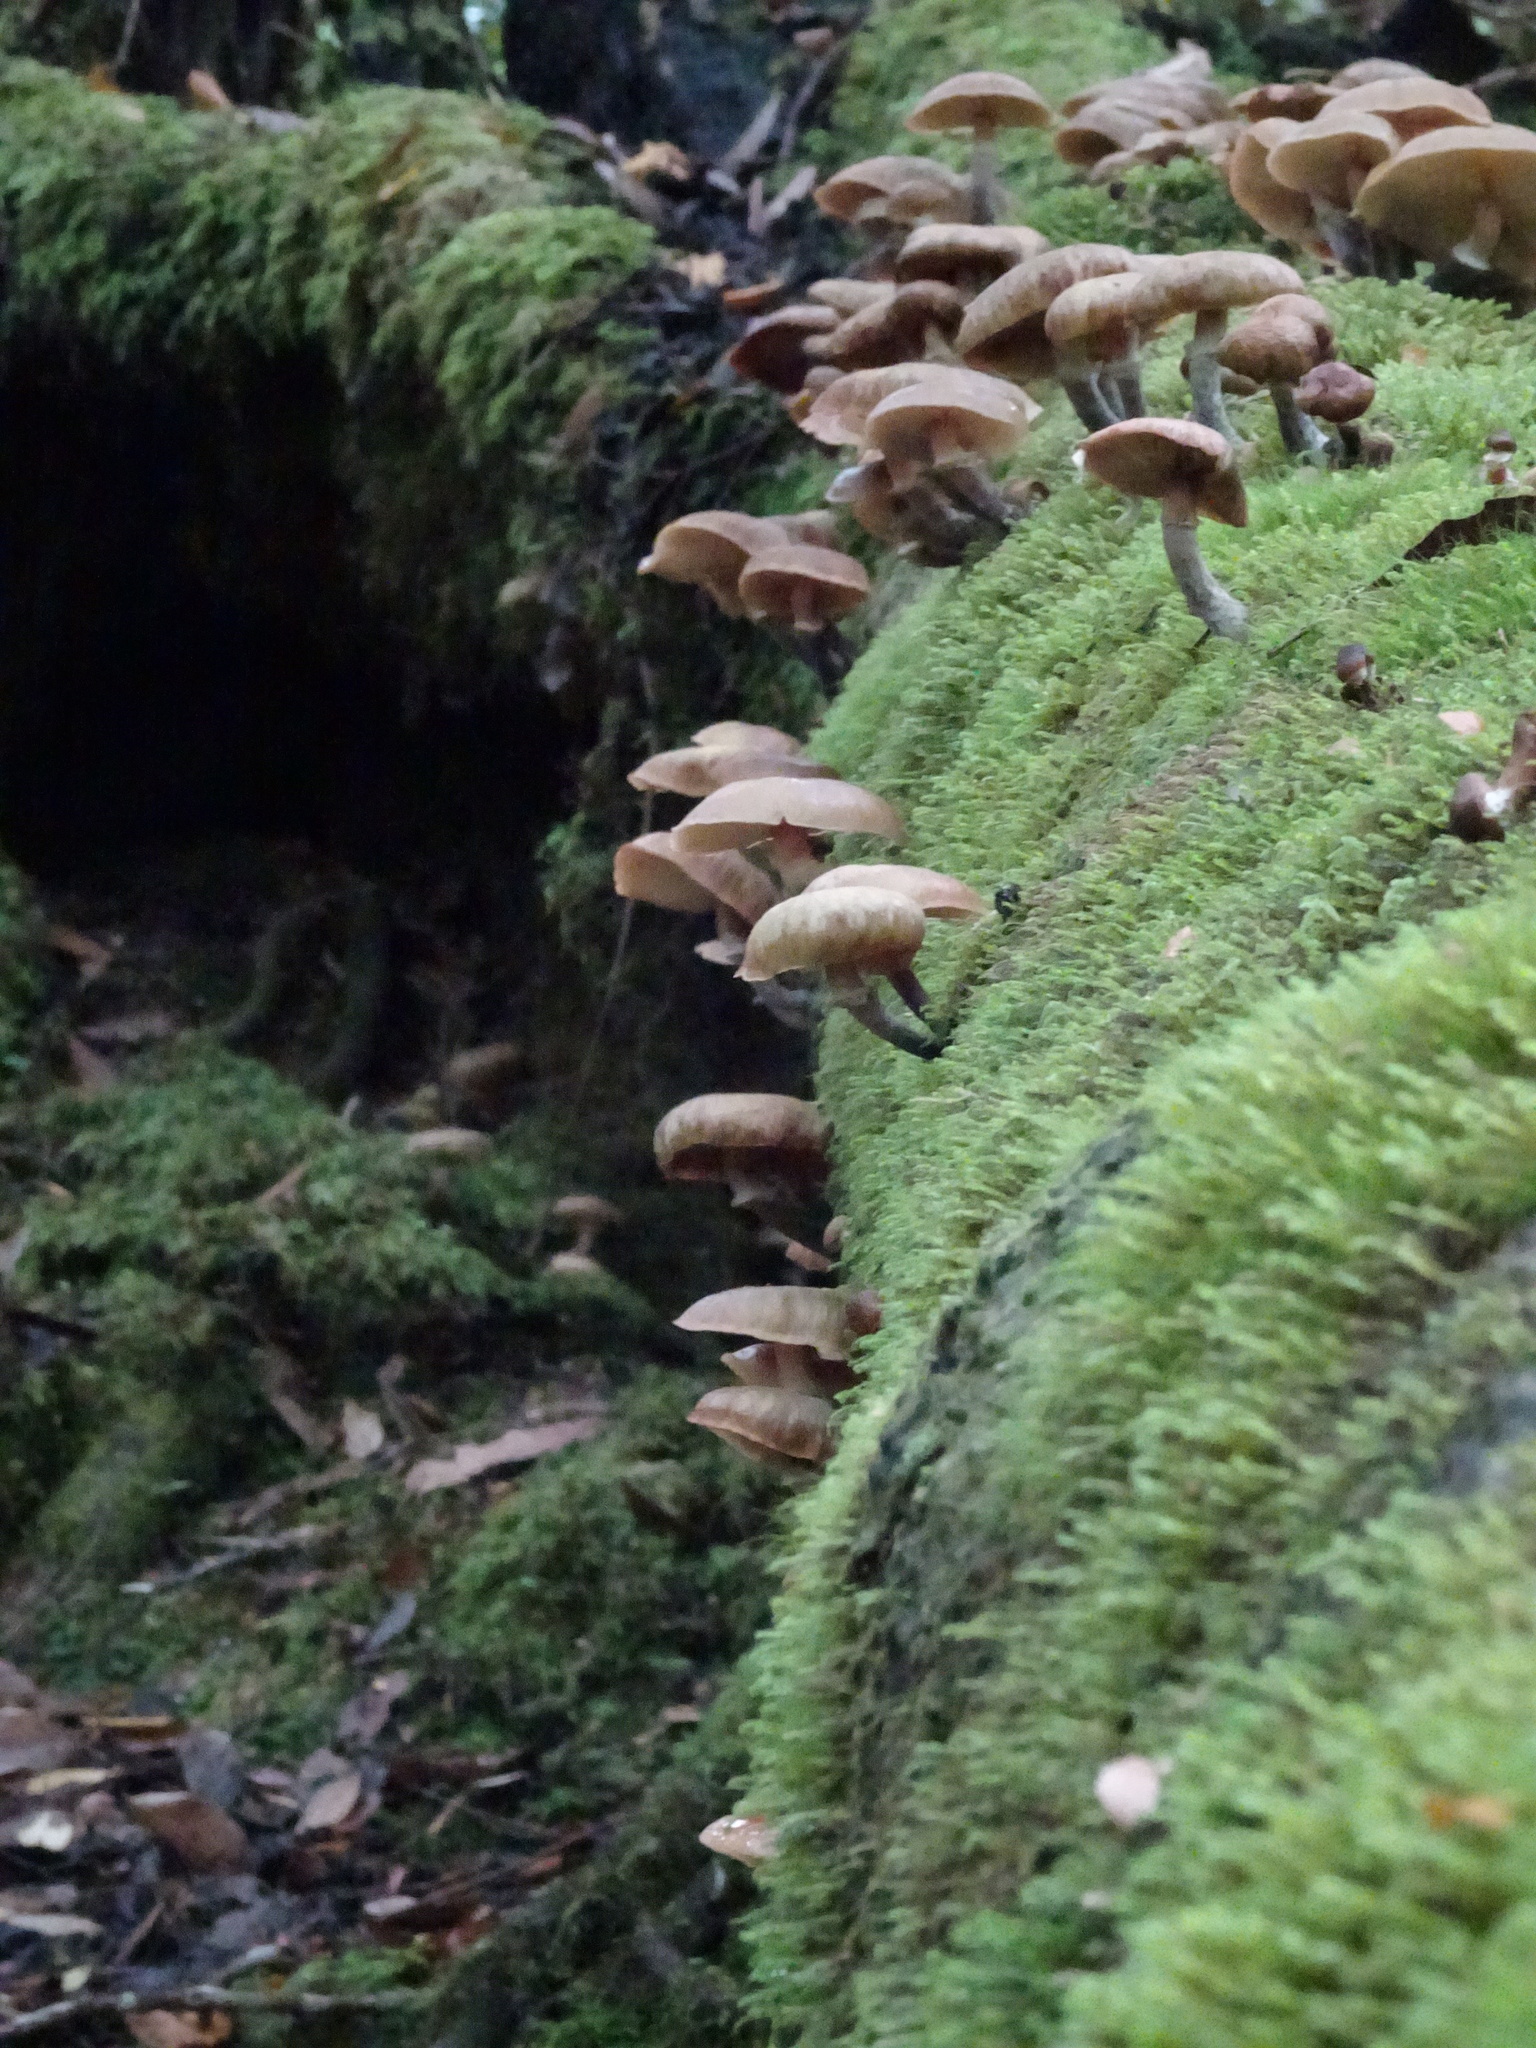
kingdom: Fungi
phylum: Basidiomycota
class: Agaricomycetes
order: Agaricales
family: Physalacriaceae
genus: Armillaria
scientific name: Armillaria novae-zelandiae
